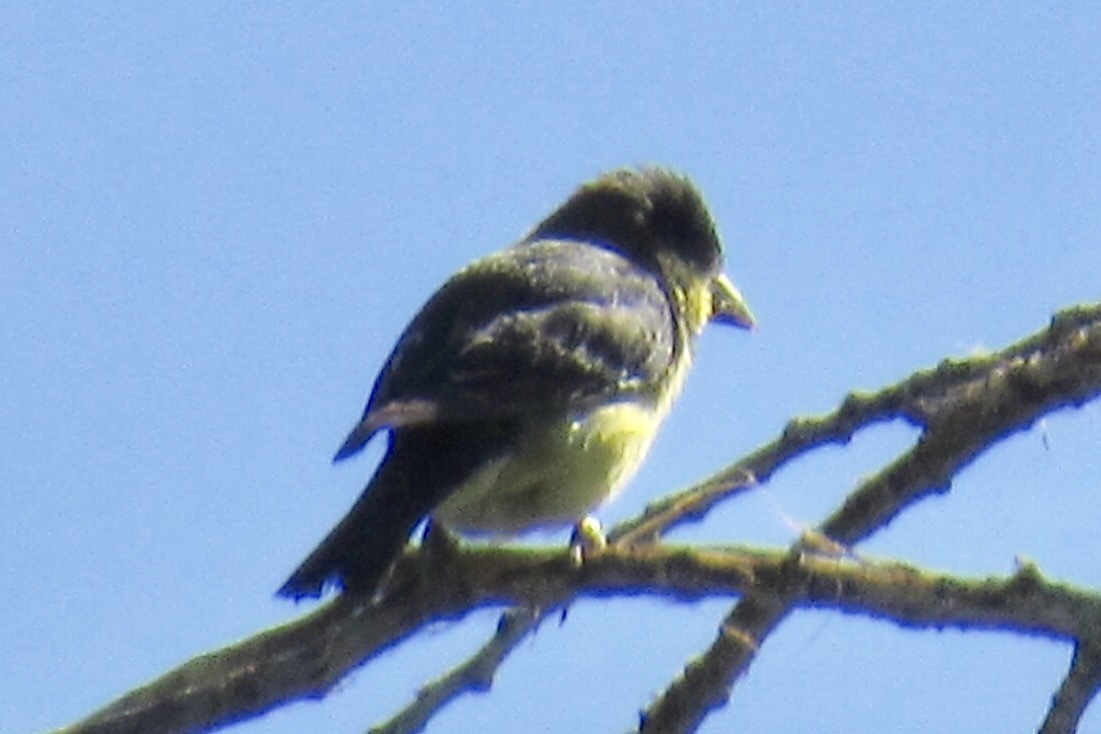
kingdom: Animalia
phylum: Chordata
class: Aves
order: Passeriformes
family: Fringillidae
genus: Spinus
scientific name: Spinus psaltria
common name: Lesser goldfinch
